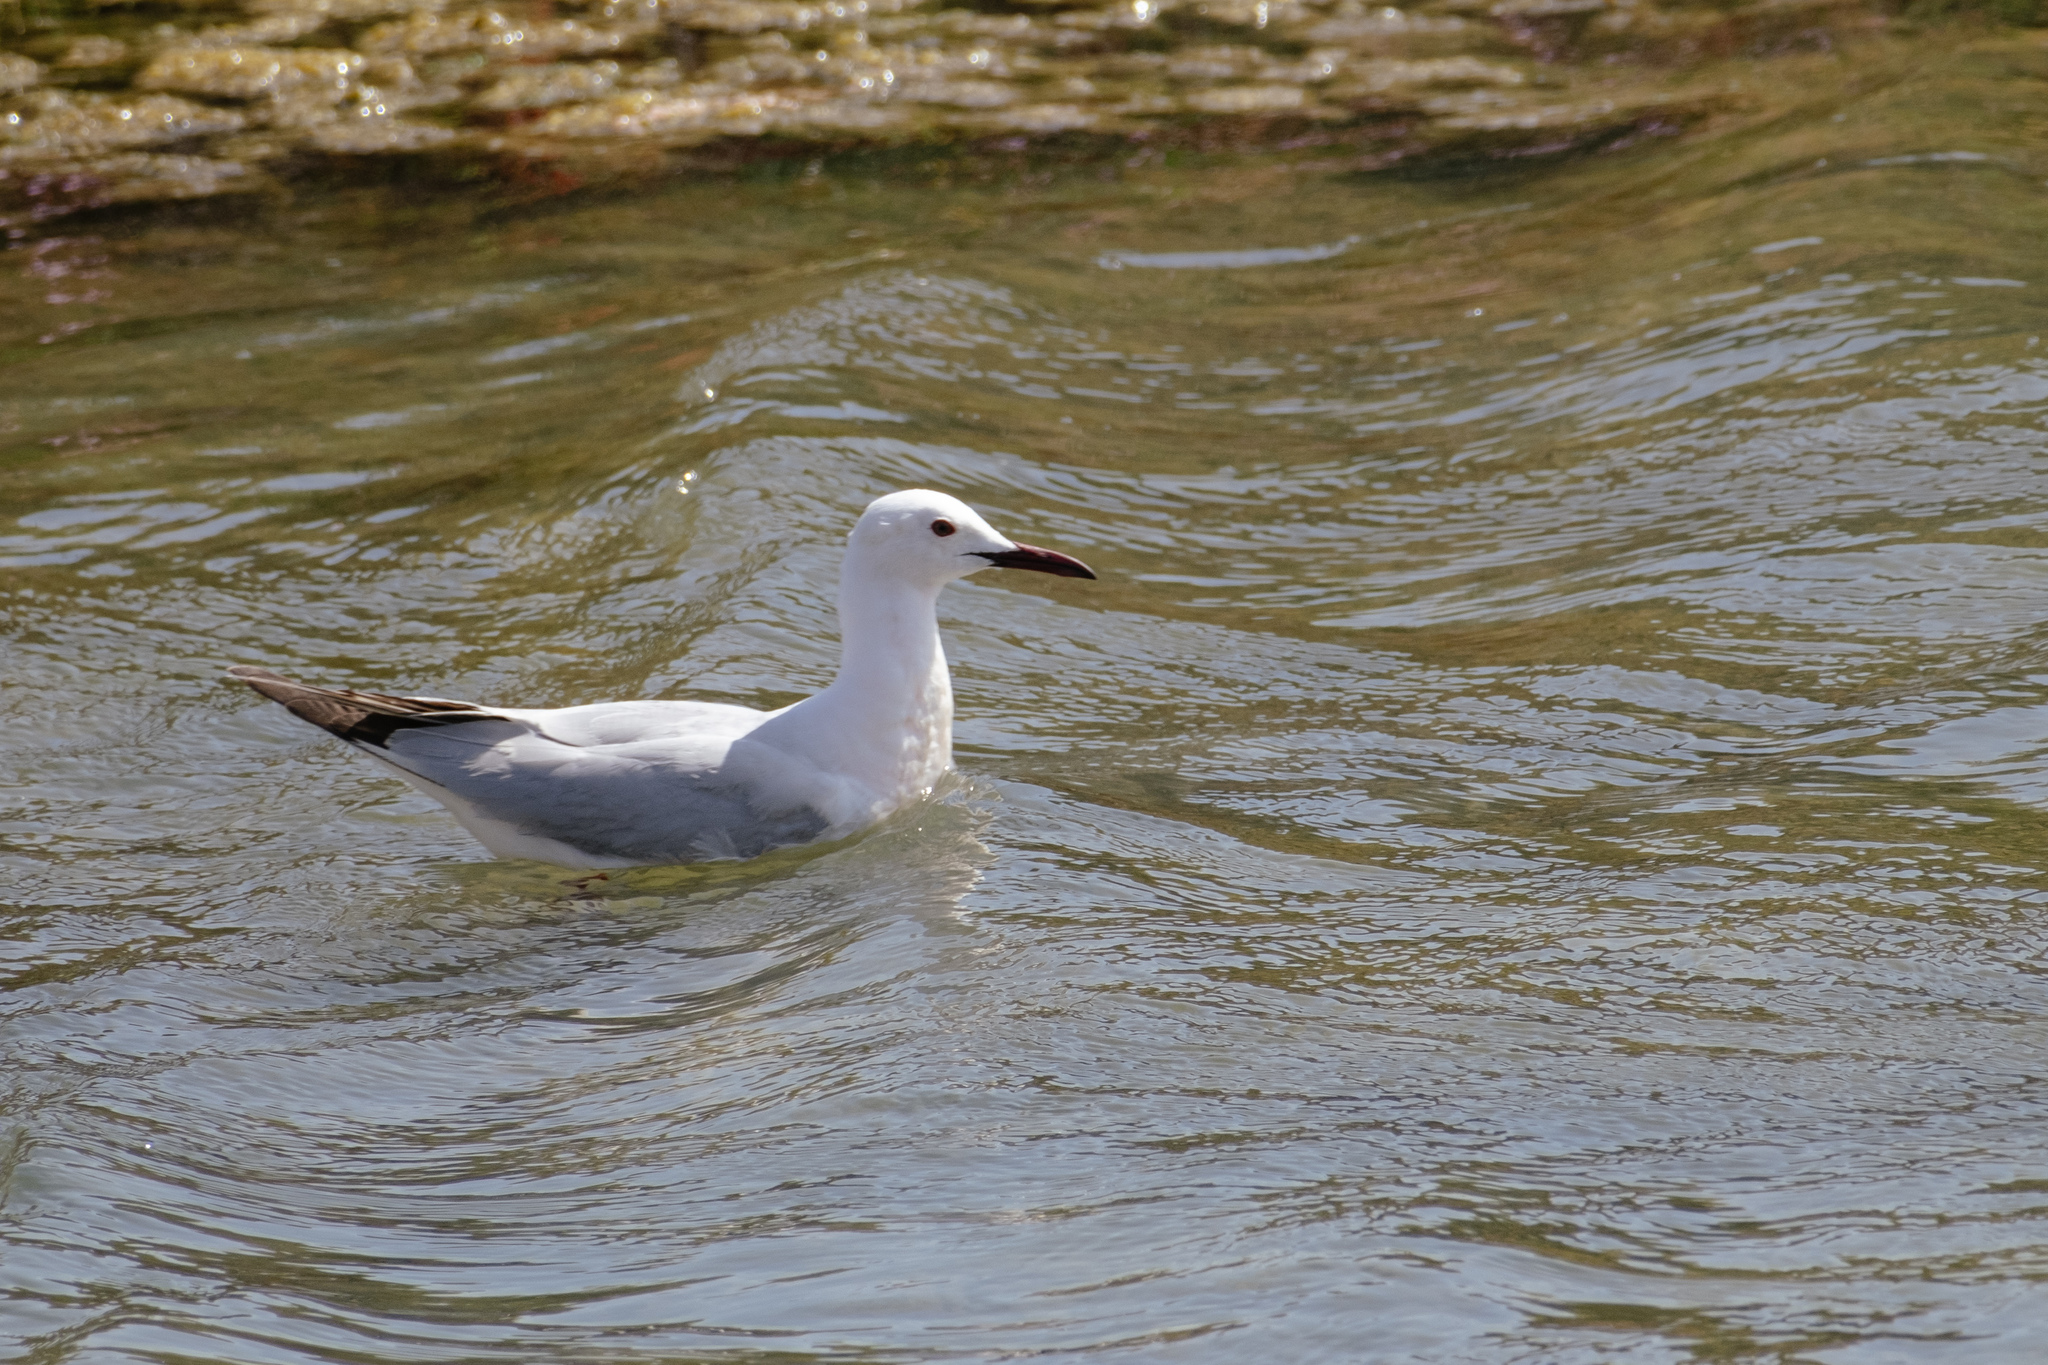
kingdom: Animalia
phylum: Chordata
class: Aves
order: Charadriiformes
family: Laridae
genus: Chroicocephalus
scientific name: Chroicocephalus genei
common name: Slender-billed gull
